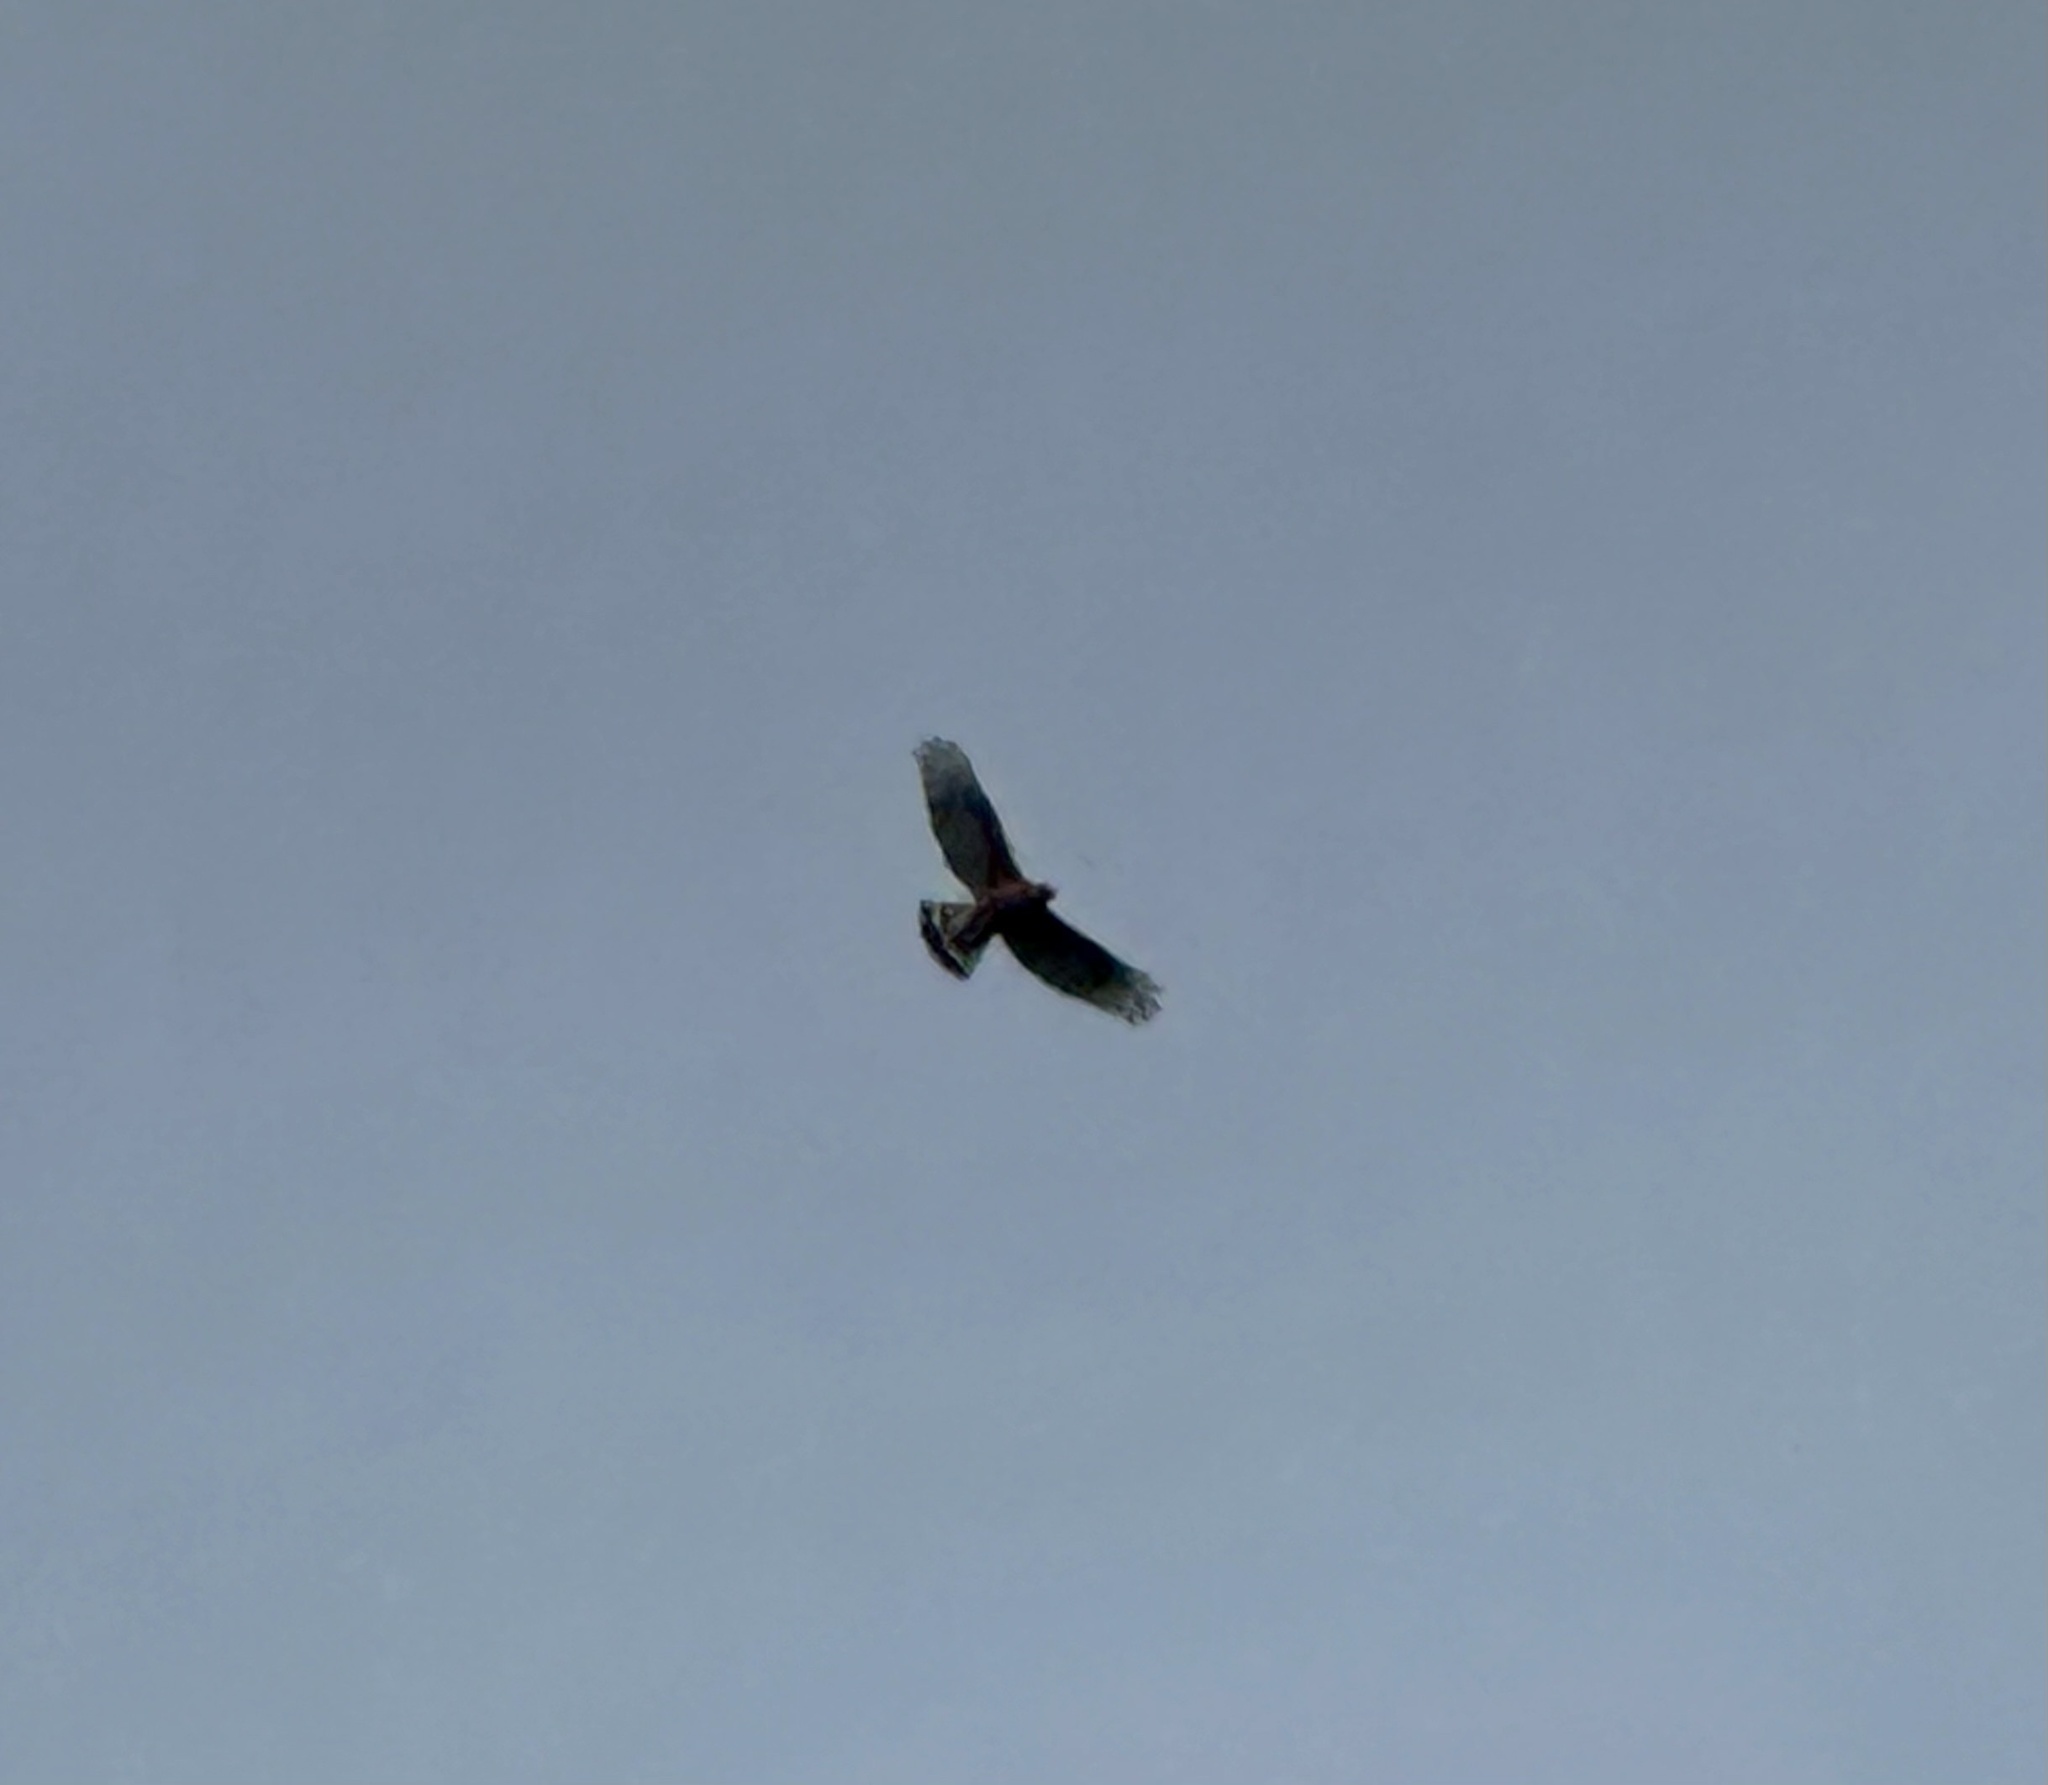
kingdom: Animalia
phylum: Chordata
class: Aves
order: Accipitriformes
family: Accipitridae
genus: Buteo
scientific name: Buteo lineatus
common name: Red-shouldered hawk
